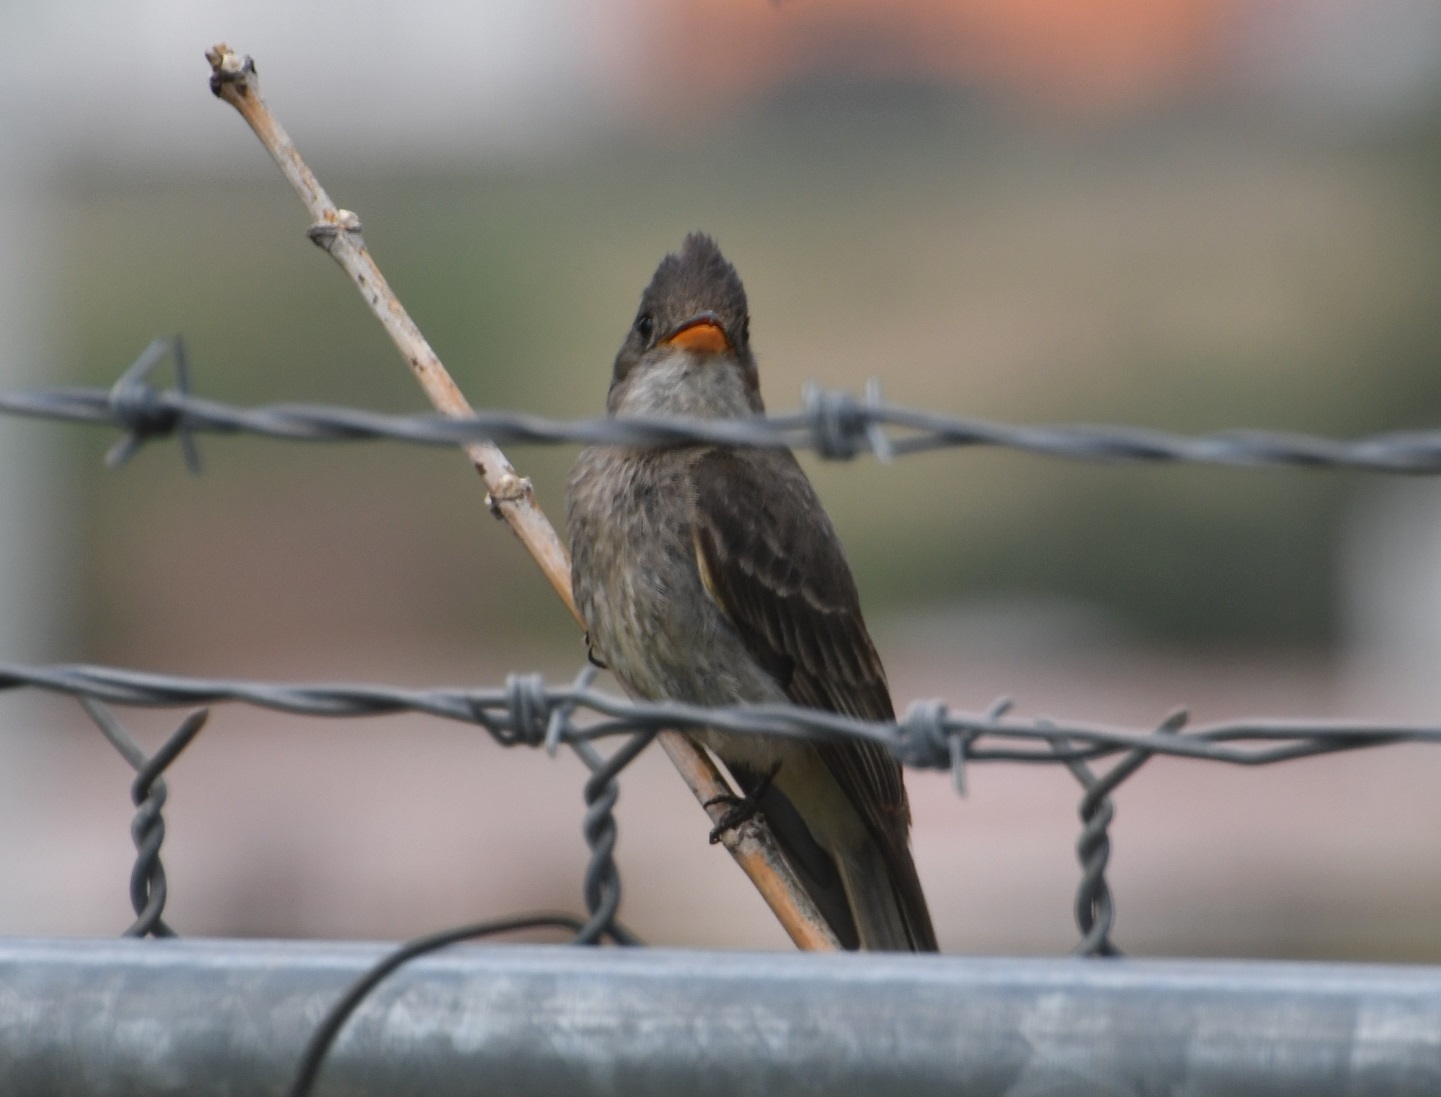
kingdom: Animalia
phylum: Chordata
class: Aves
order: Passeriformes
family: Tyrannidae
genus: Contopus
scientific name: Contopus pertinax
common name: Greater pewee
